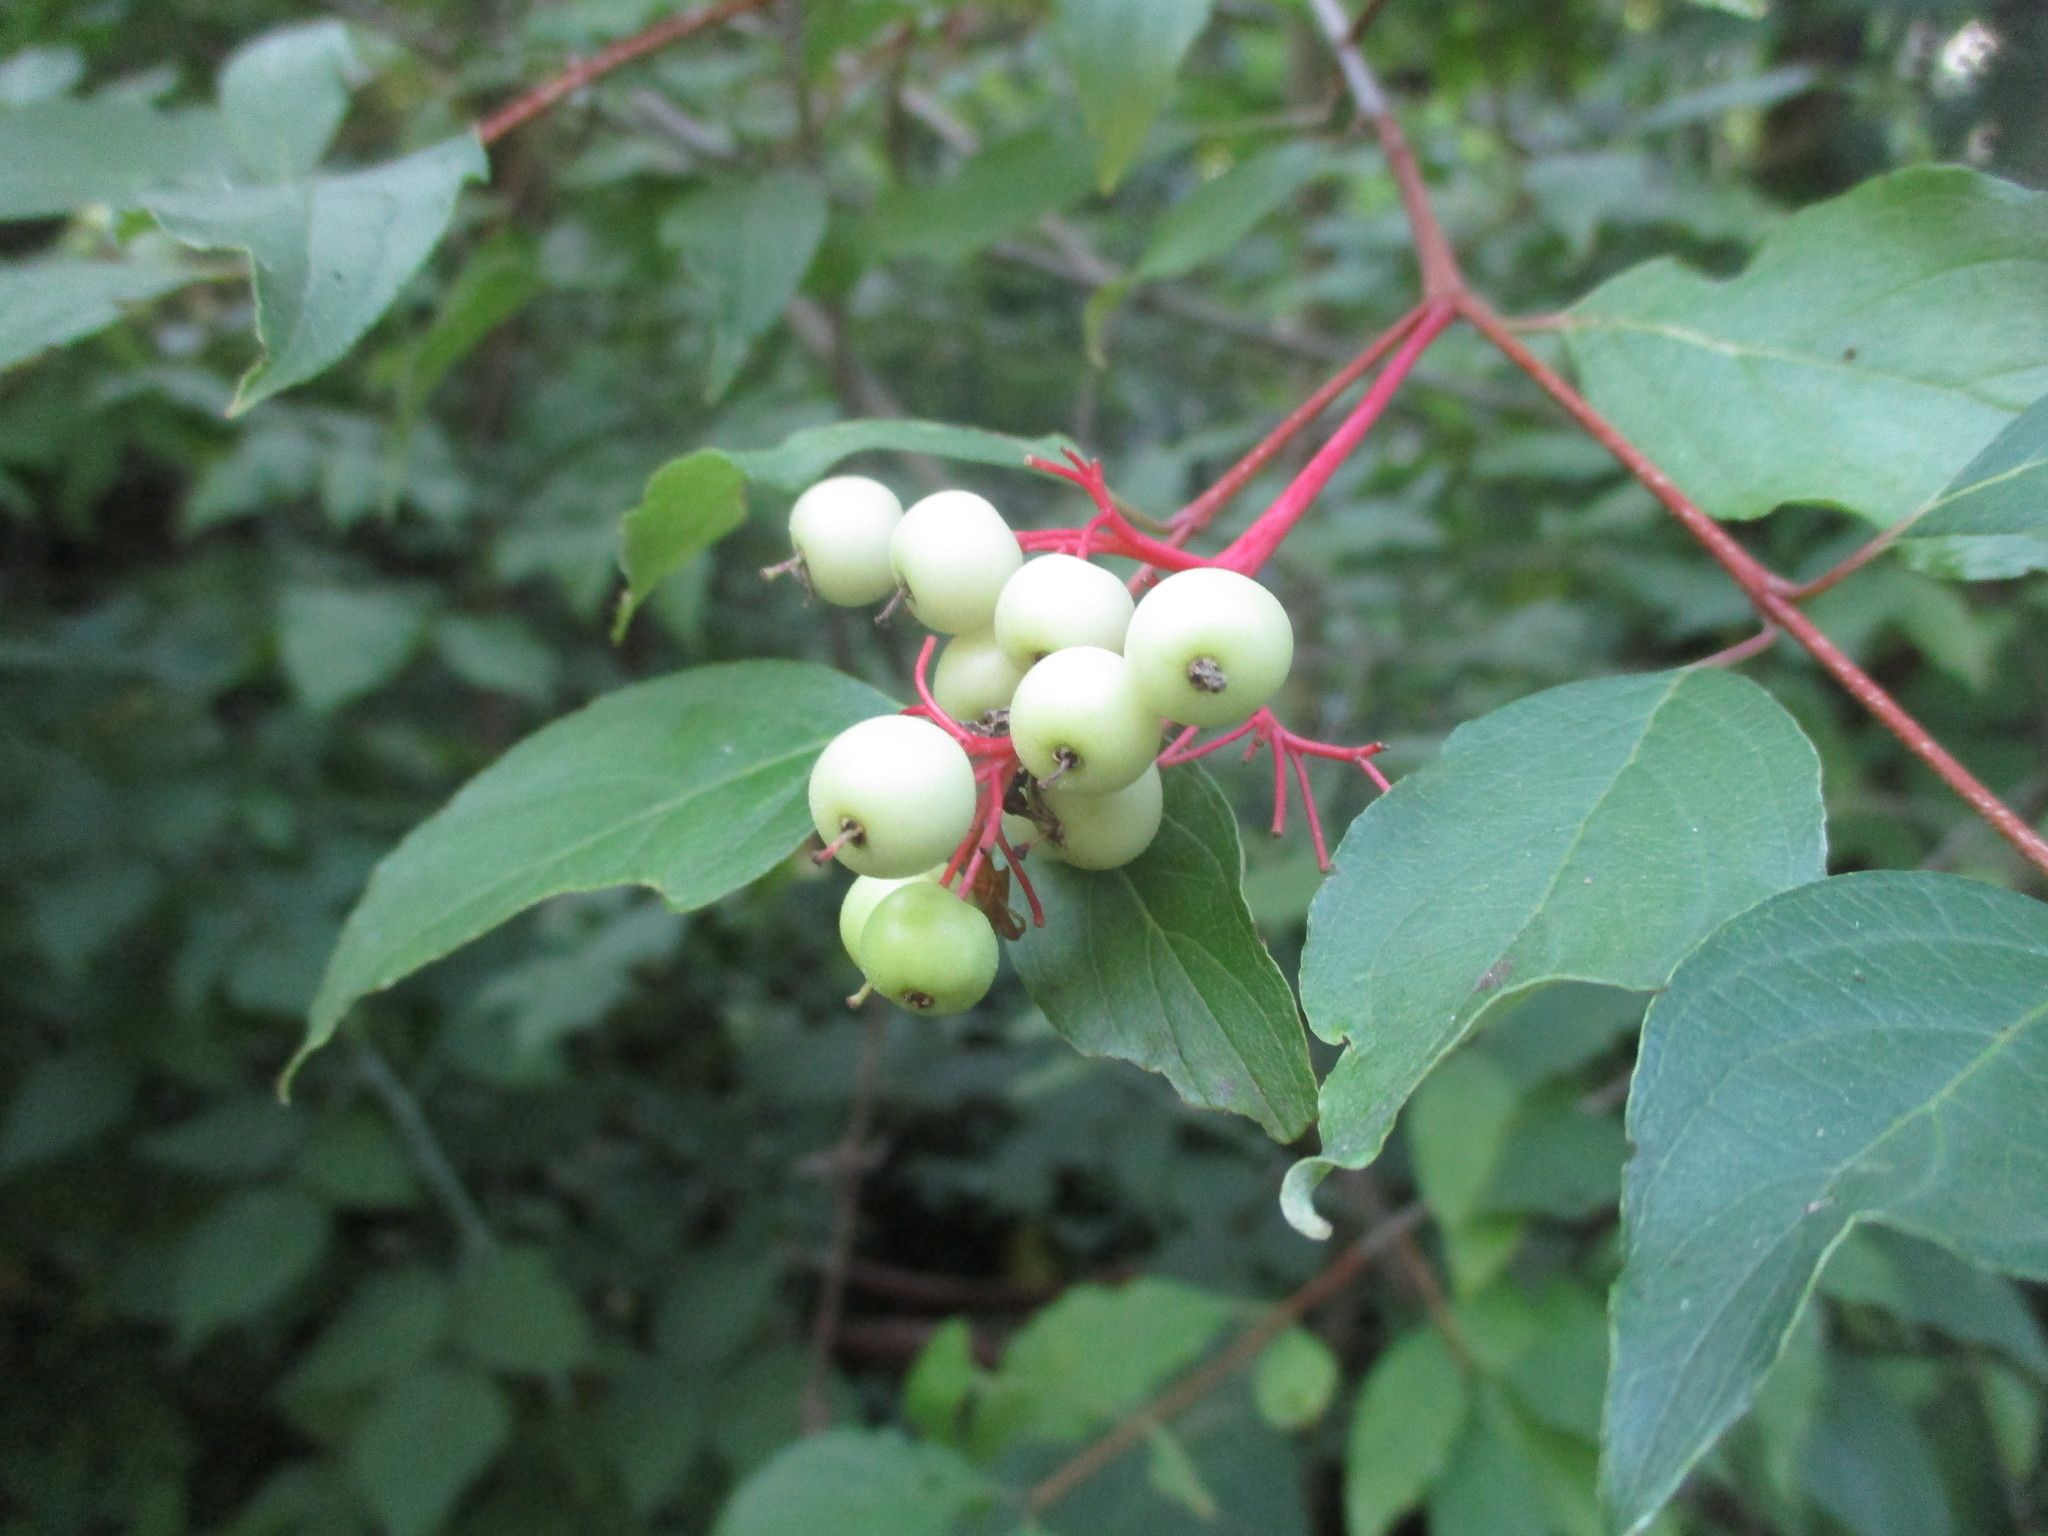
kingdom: Plantae
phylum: Tracheophyta
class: Magnoliopsida
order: Cornales
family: Cornaceae
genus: Cornus
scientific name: Cornus racemosa
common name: Panicled dogwood
